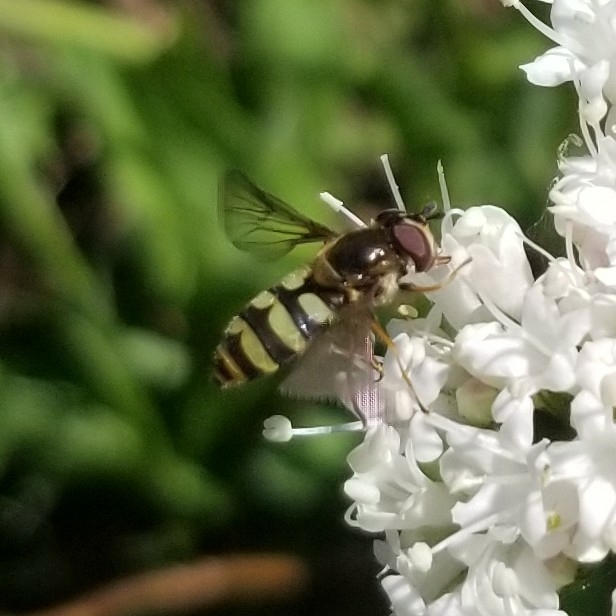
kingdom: Animalia
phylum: Arthropoda
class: Insecta
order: Diptera
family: Syrphidae
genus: Megasyrphus
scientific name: Megasyrphus laxus
